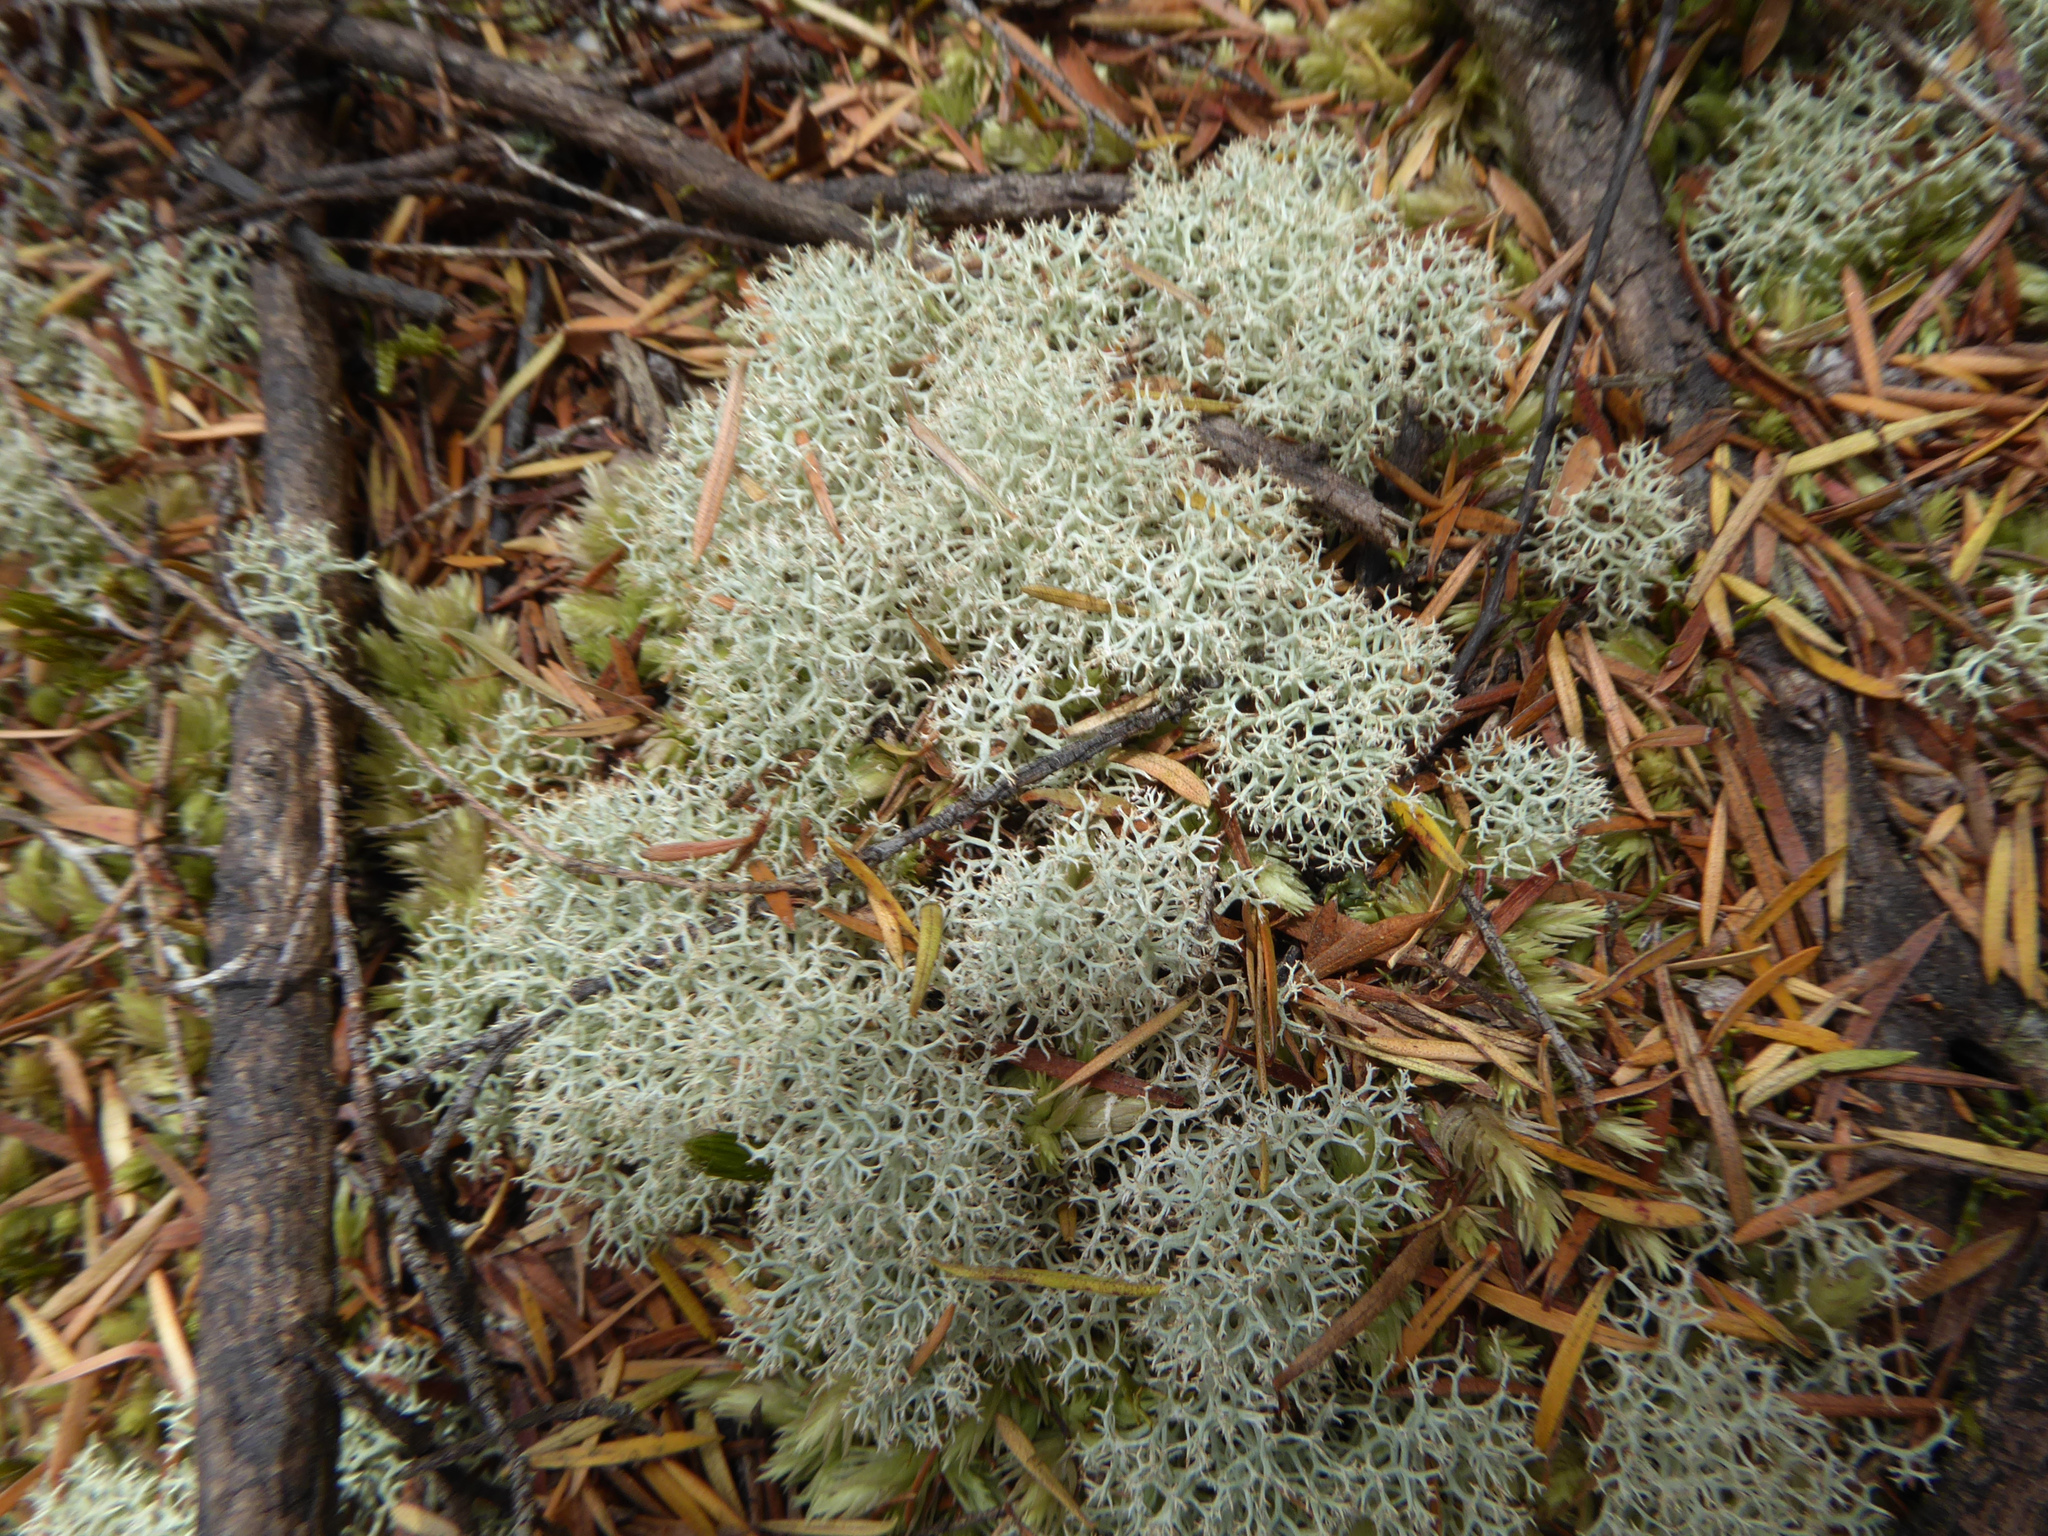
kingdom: Fungi
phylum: Ascomycota
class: Lecanoromycetes
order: Lecanorales
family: Cladoniaceae
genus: Cladonia
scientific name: Cladonia confusa
